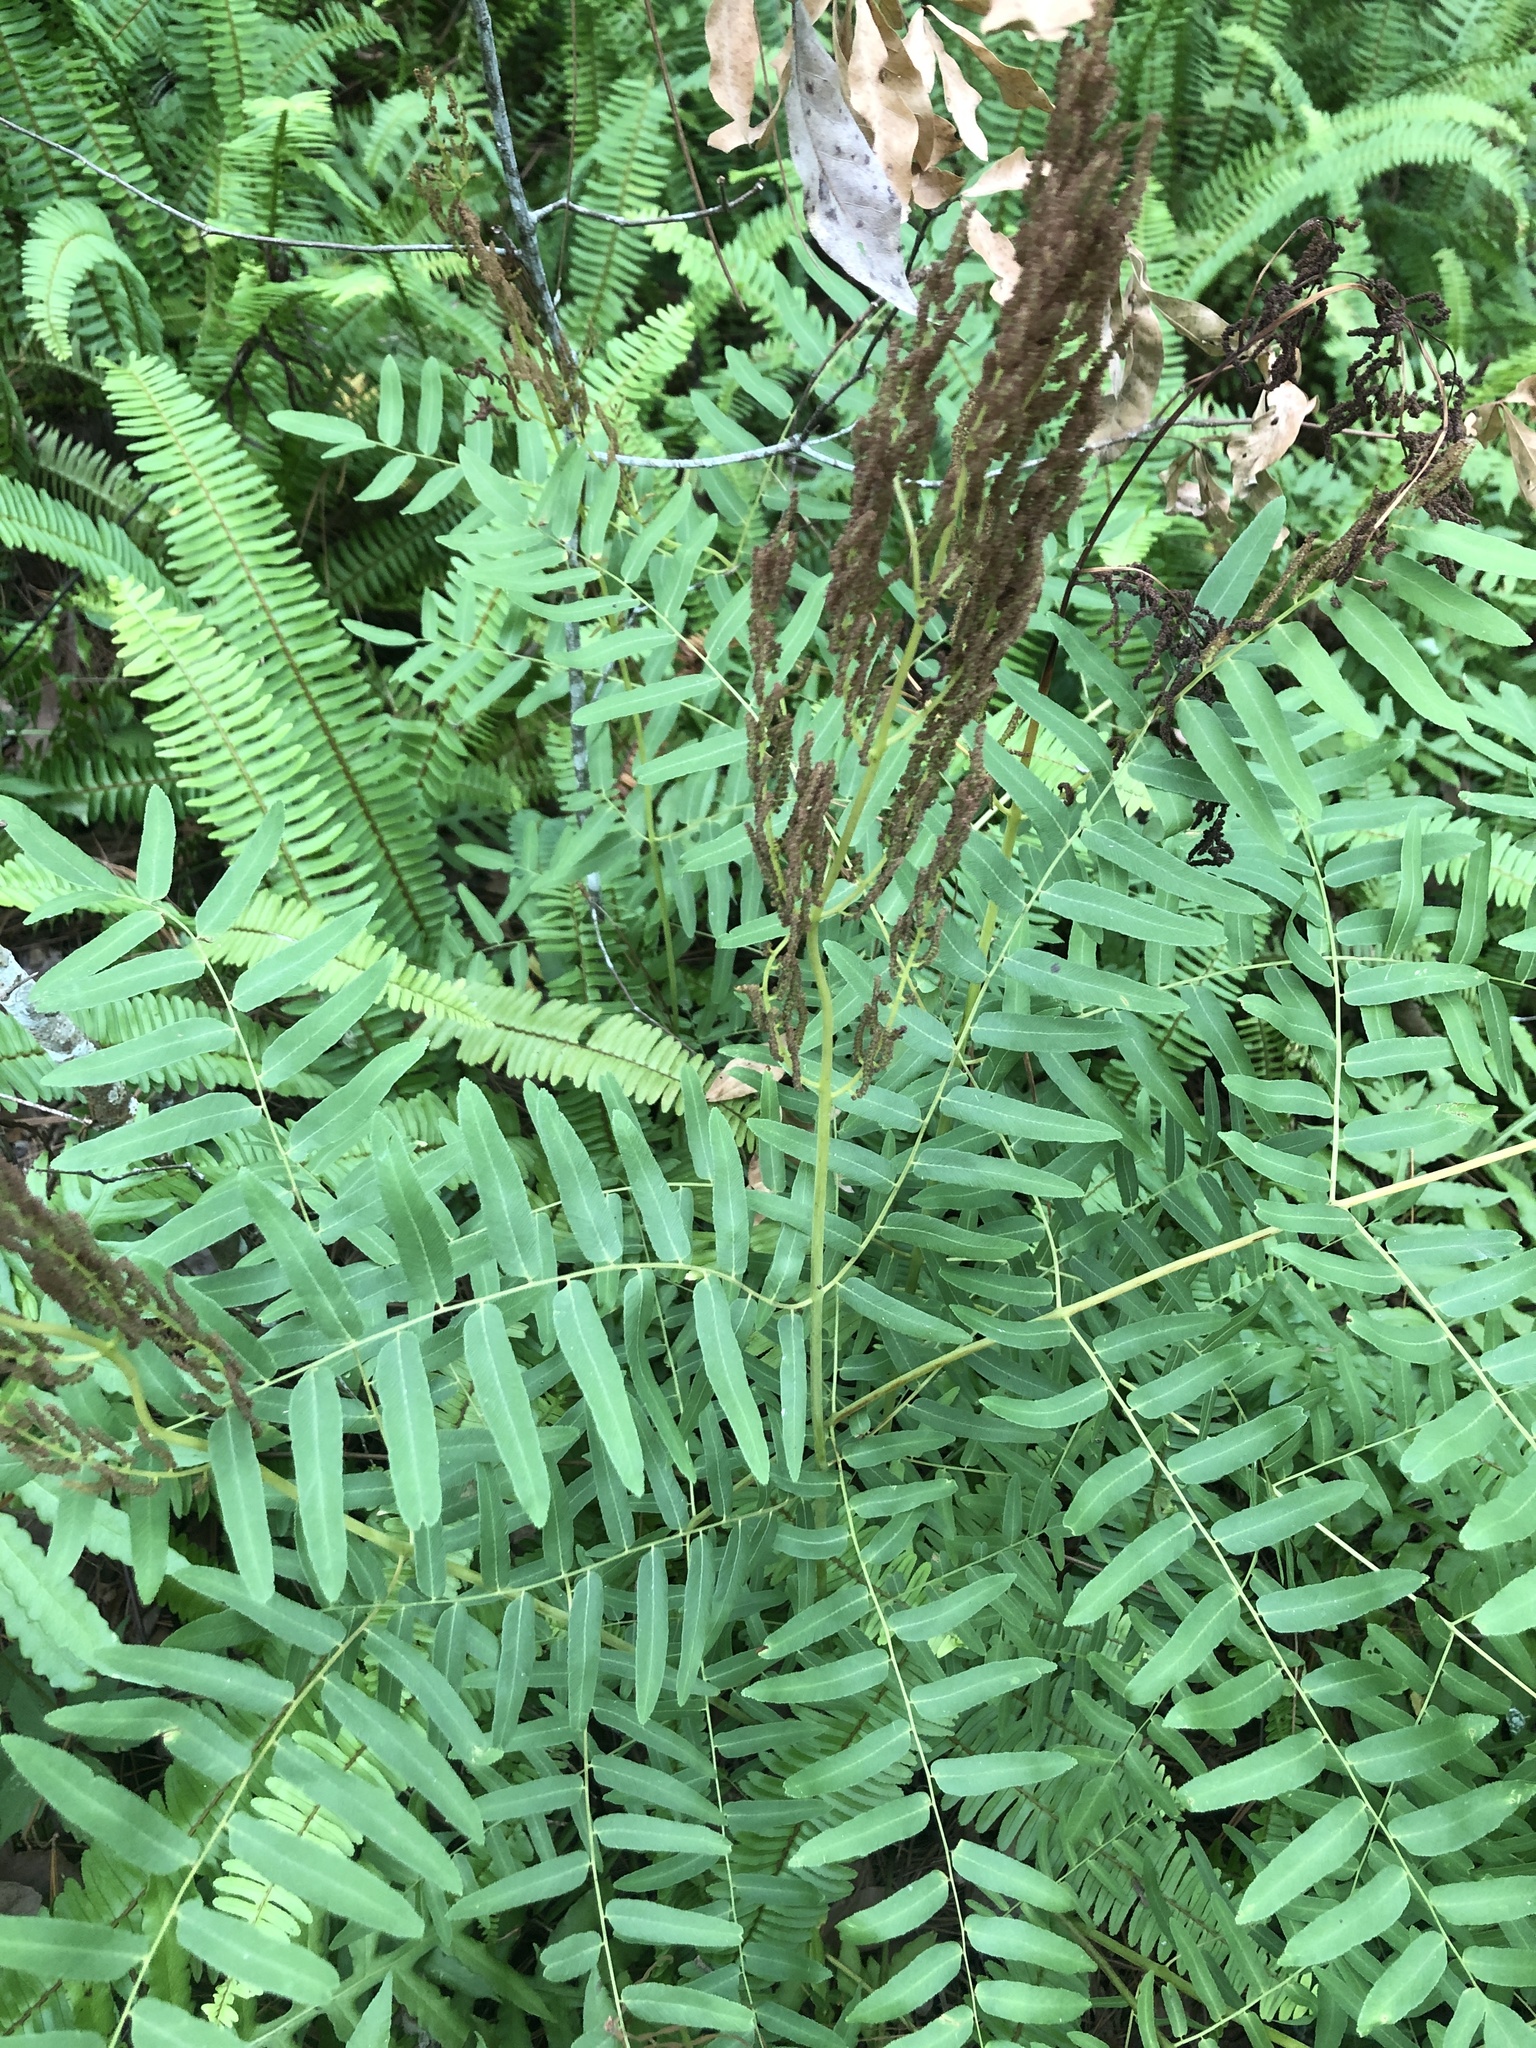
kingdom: Plantae
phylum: Tracheophyta
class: Polypodiopsida
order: Osmundales
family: Osmundaceae
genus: Osmunda
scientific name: Osmunda spectabilis
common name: American royal fern
